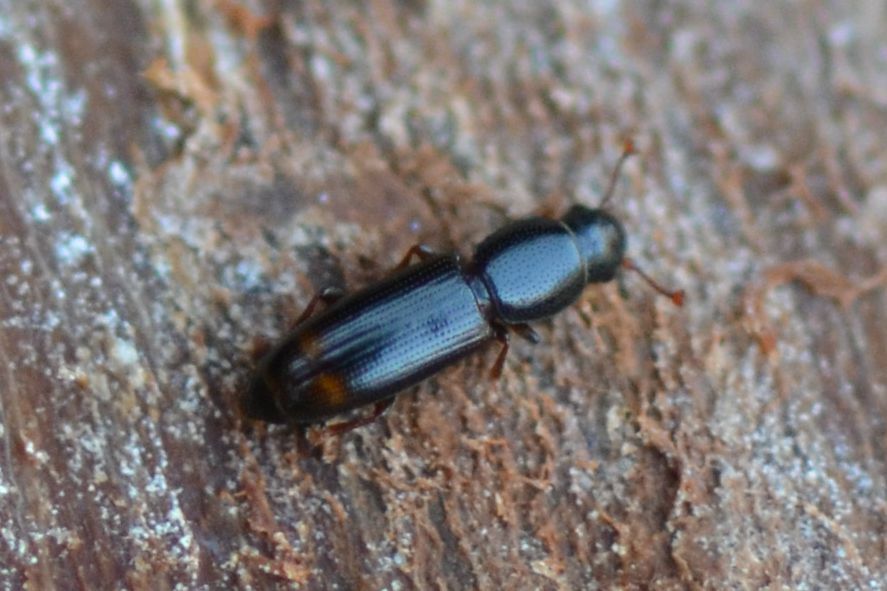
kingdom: Animalia
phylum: Arthropoda
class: Insecta
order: Coleoptera
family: Monotomidae
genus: Rhizophagus
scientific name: Rhizophagus bipustulatus
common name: Root-eating beetle
